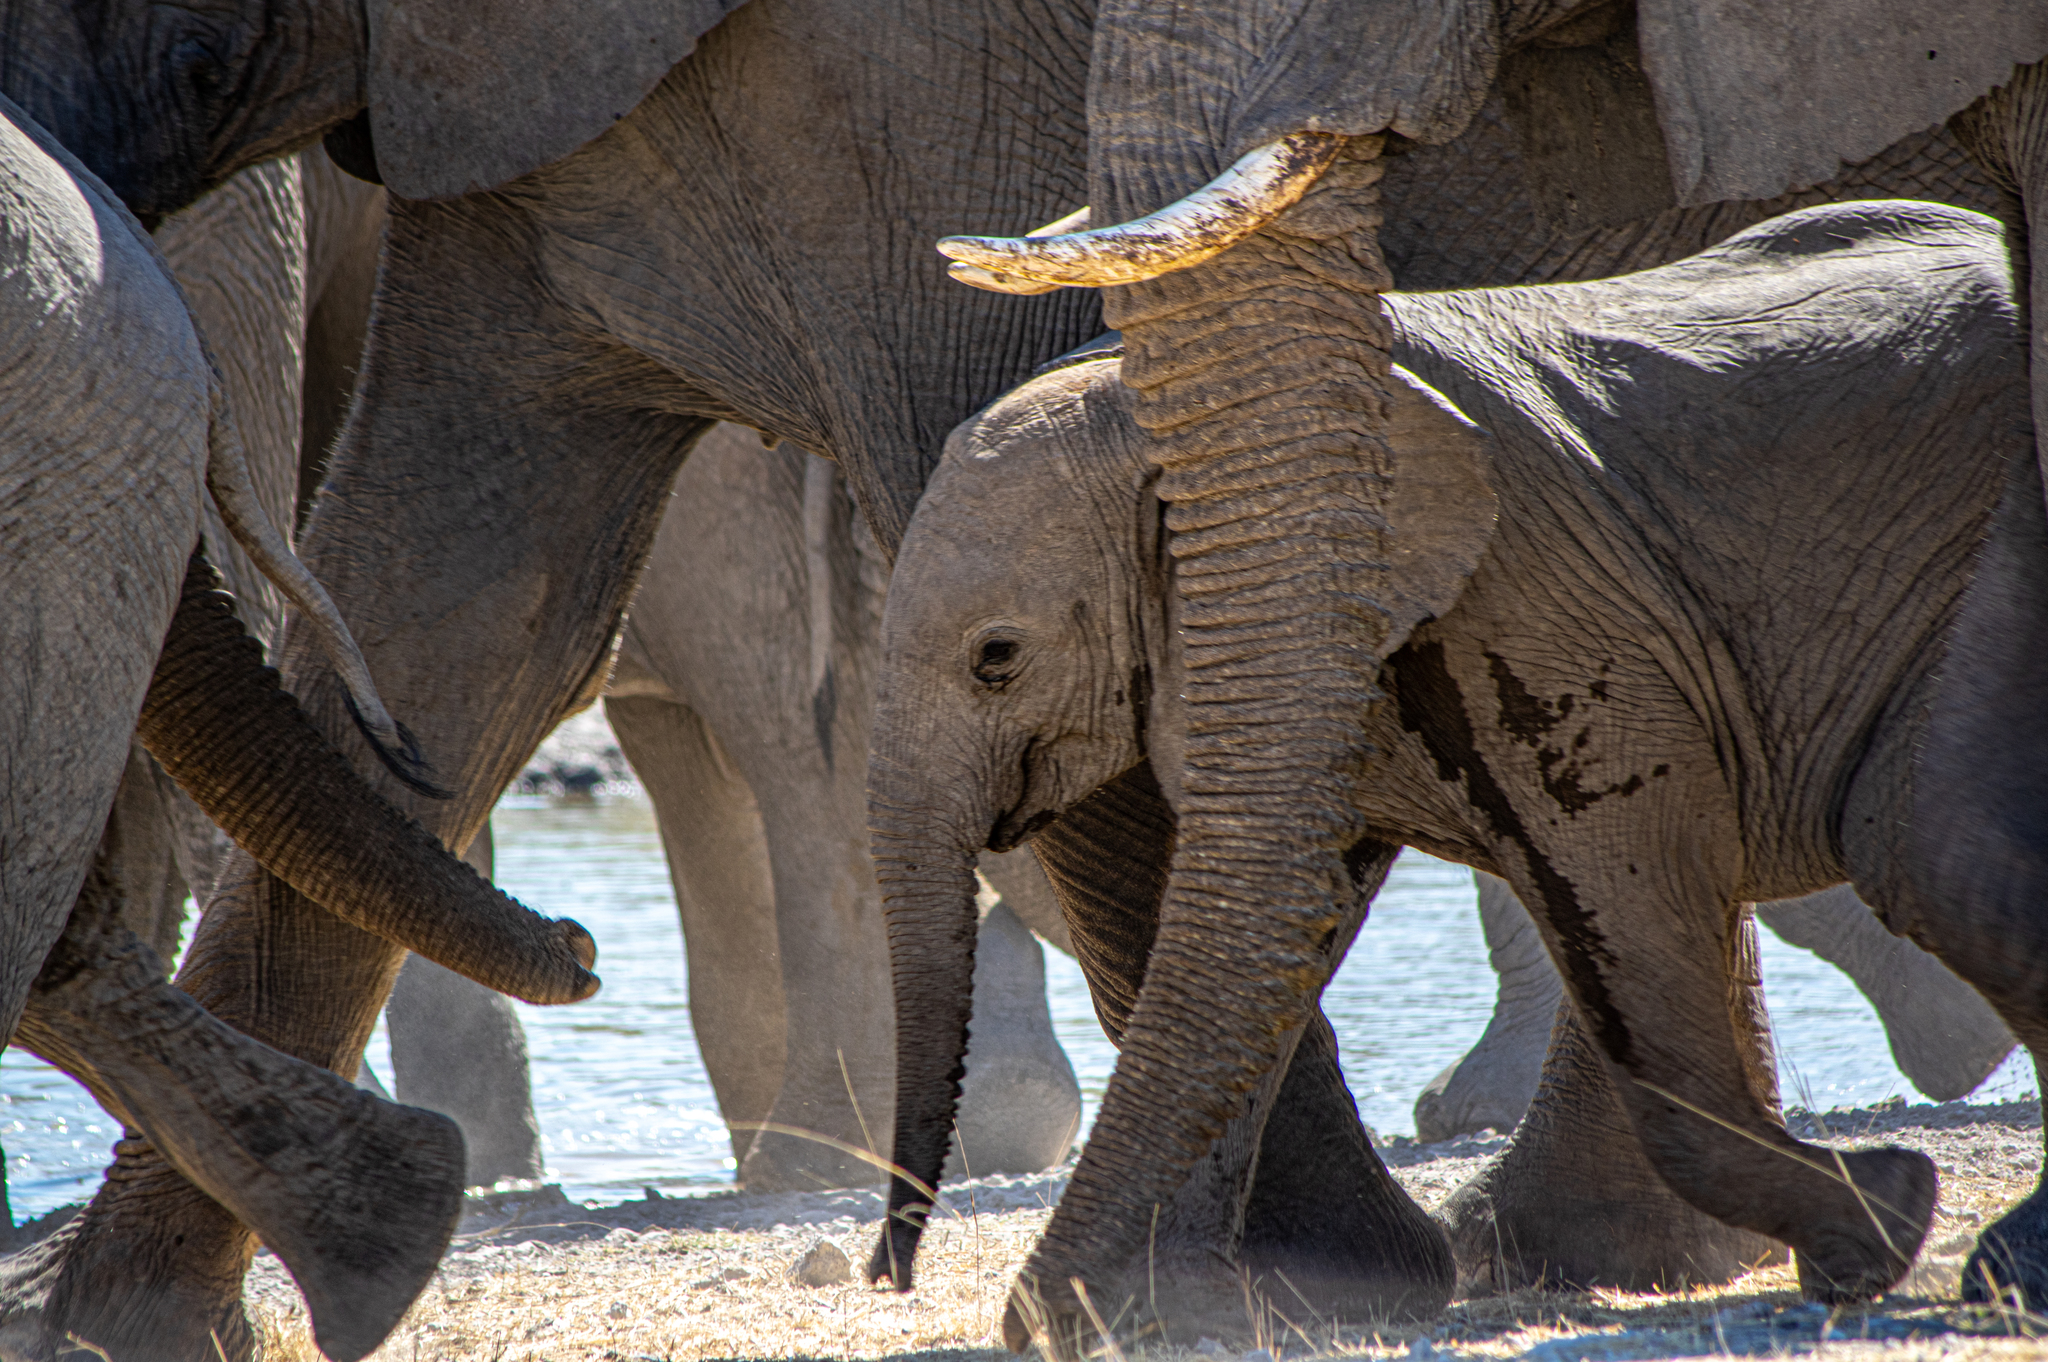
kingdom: Animalia
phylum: Chordata
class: Mammalia
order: Proboscidea
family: Elephantidae
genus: Loxodonta
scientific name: Loxodonta africana
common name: African elephant
